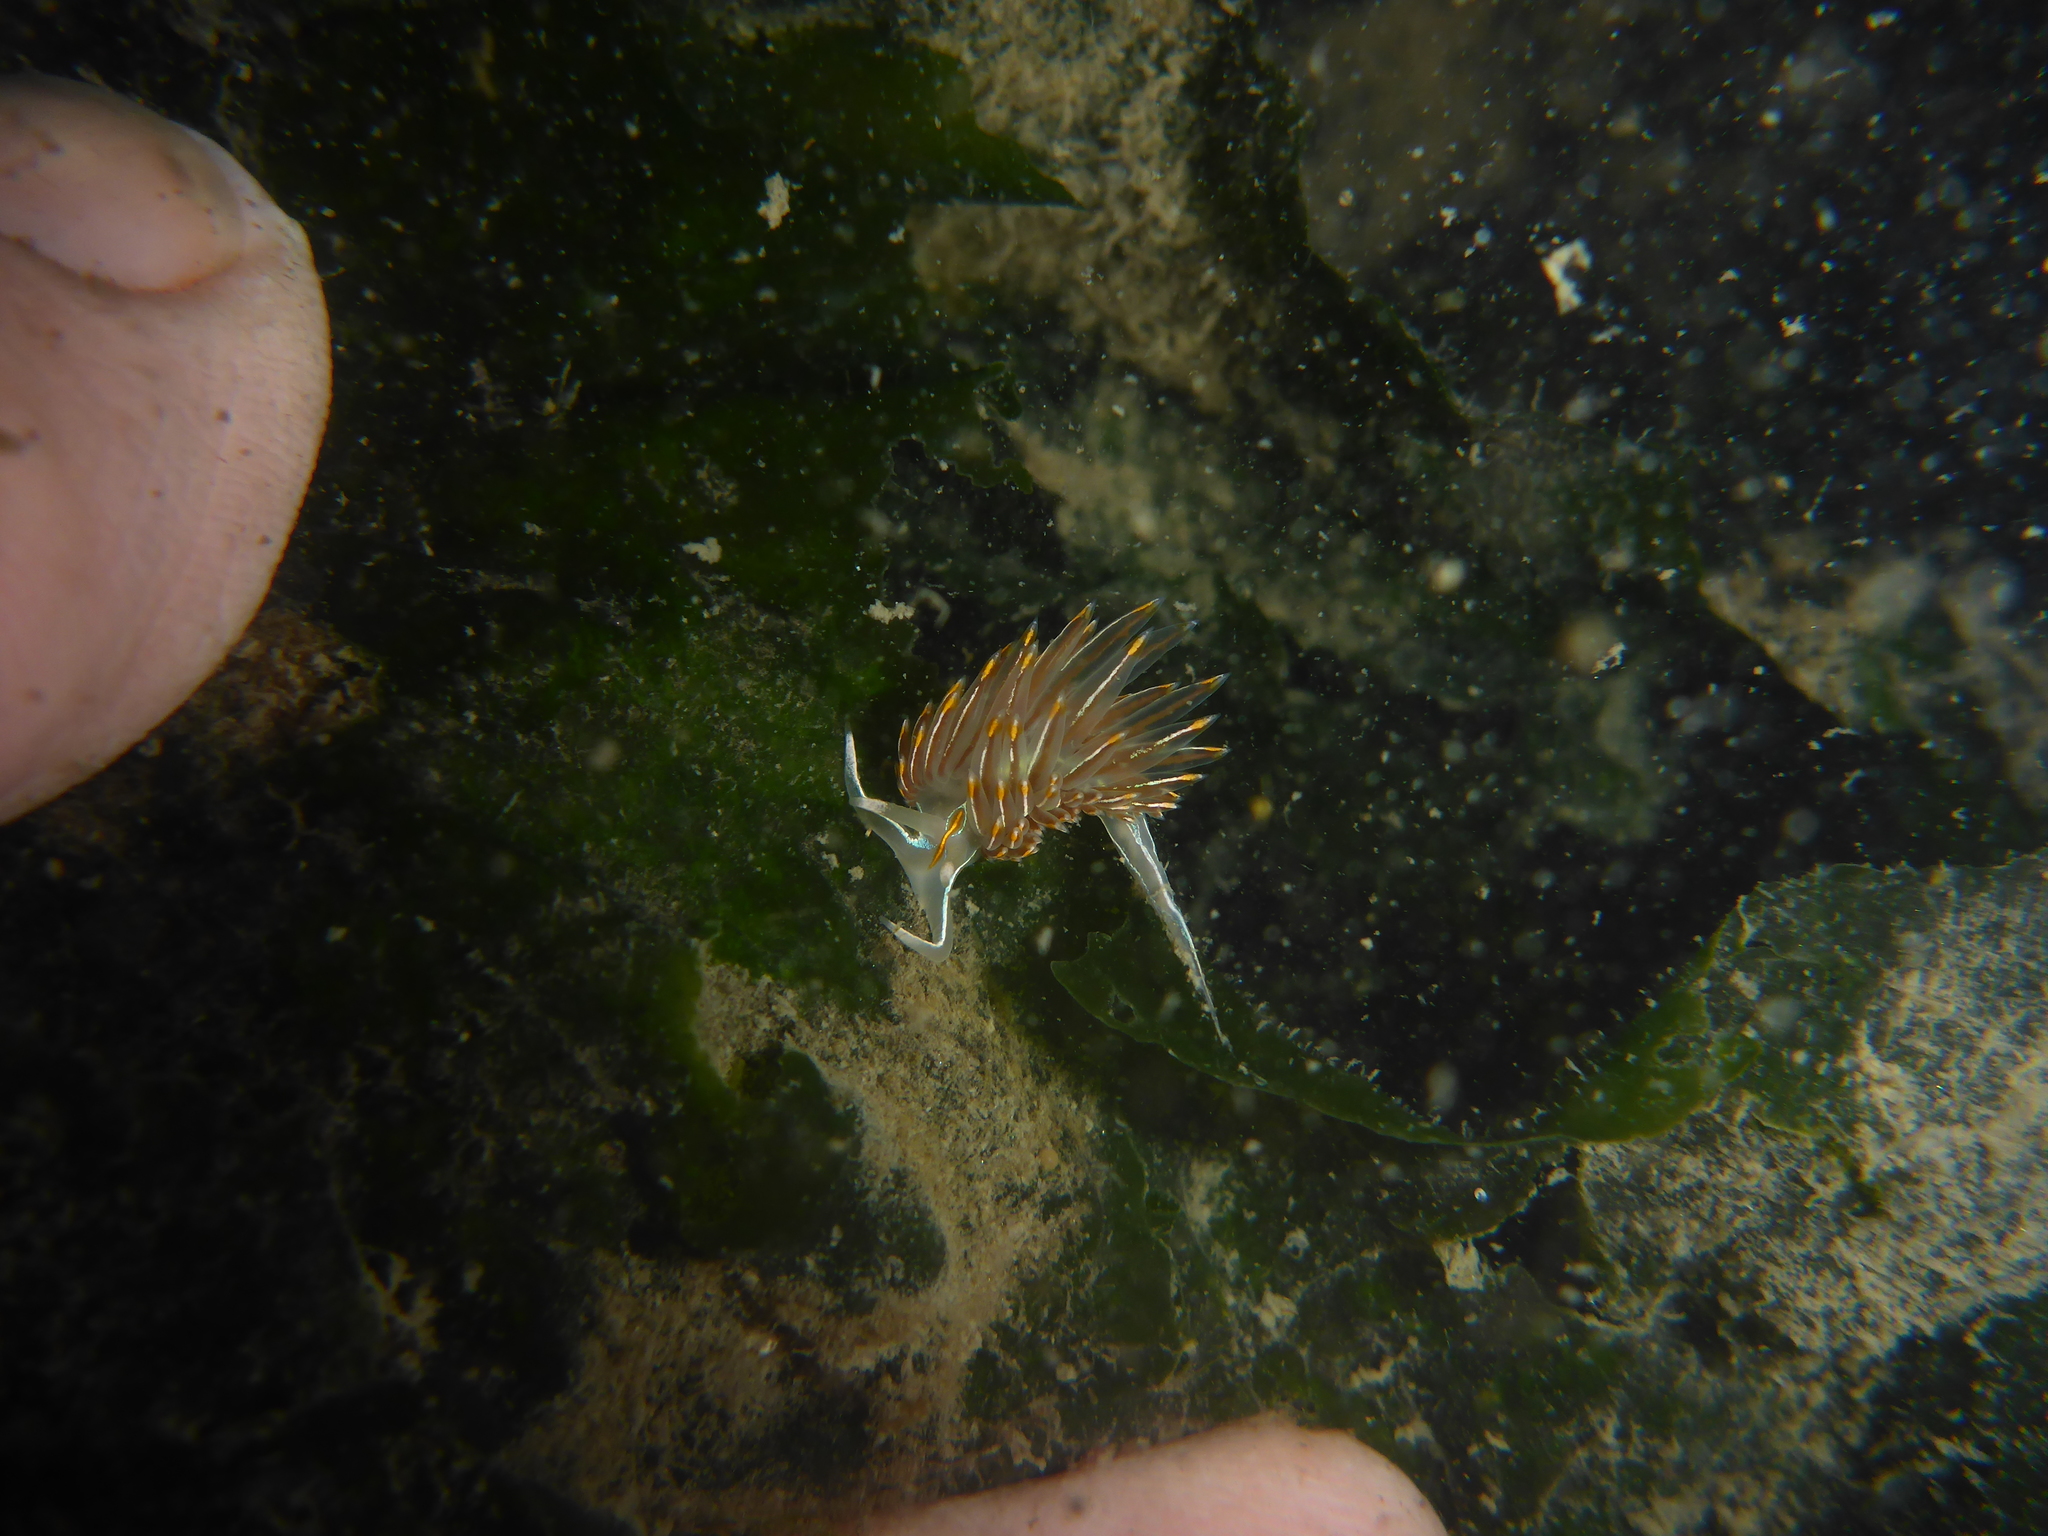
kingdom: Animalia
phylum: Mollusca
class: Gastropoda
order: Nudibranchia
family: Myrrhinidae
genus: Hermissenda
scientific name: Hermissenda crassicornis
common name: Hermissenda
